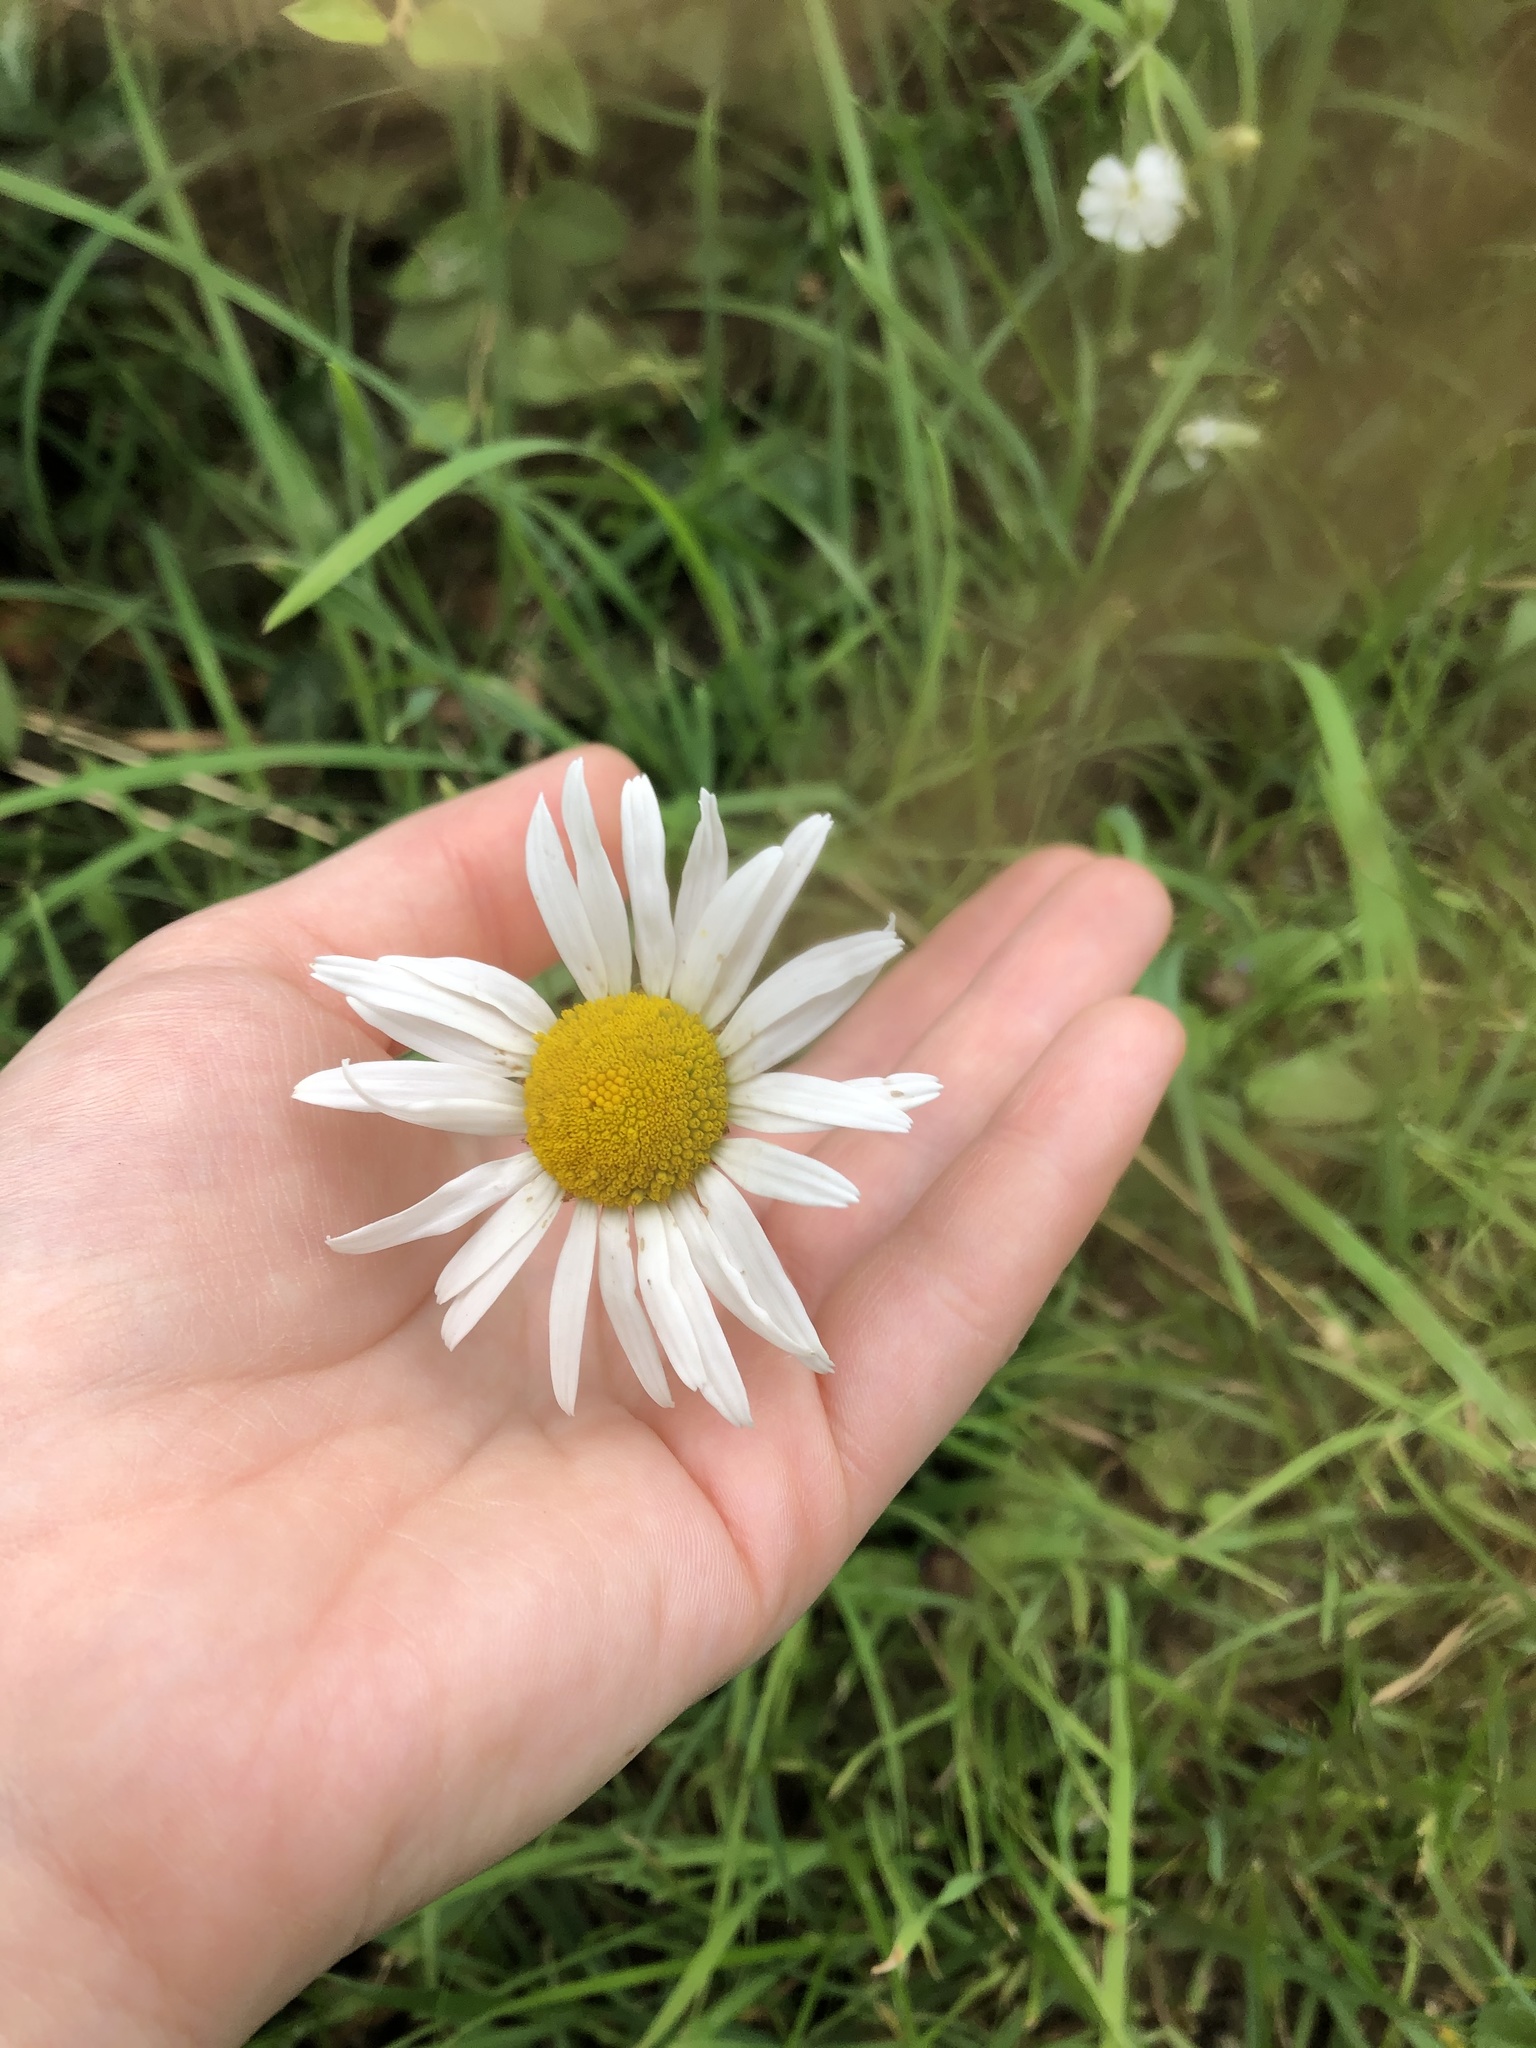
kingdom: Plantae
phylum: Tracheophyta
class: Magnoliopsida
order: Asterales
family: Asteraceae
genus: Leucanthemum
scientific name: Leucanthemum vulgare
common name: Oxeye daisy
